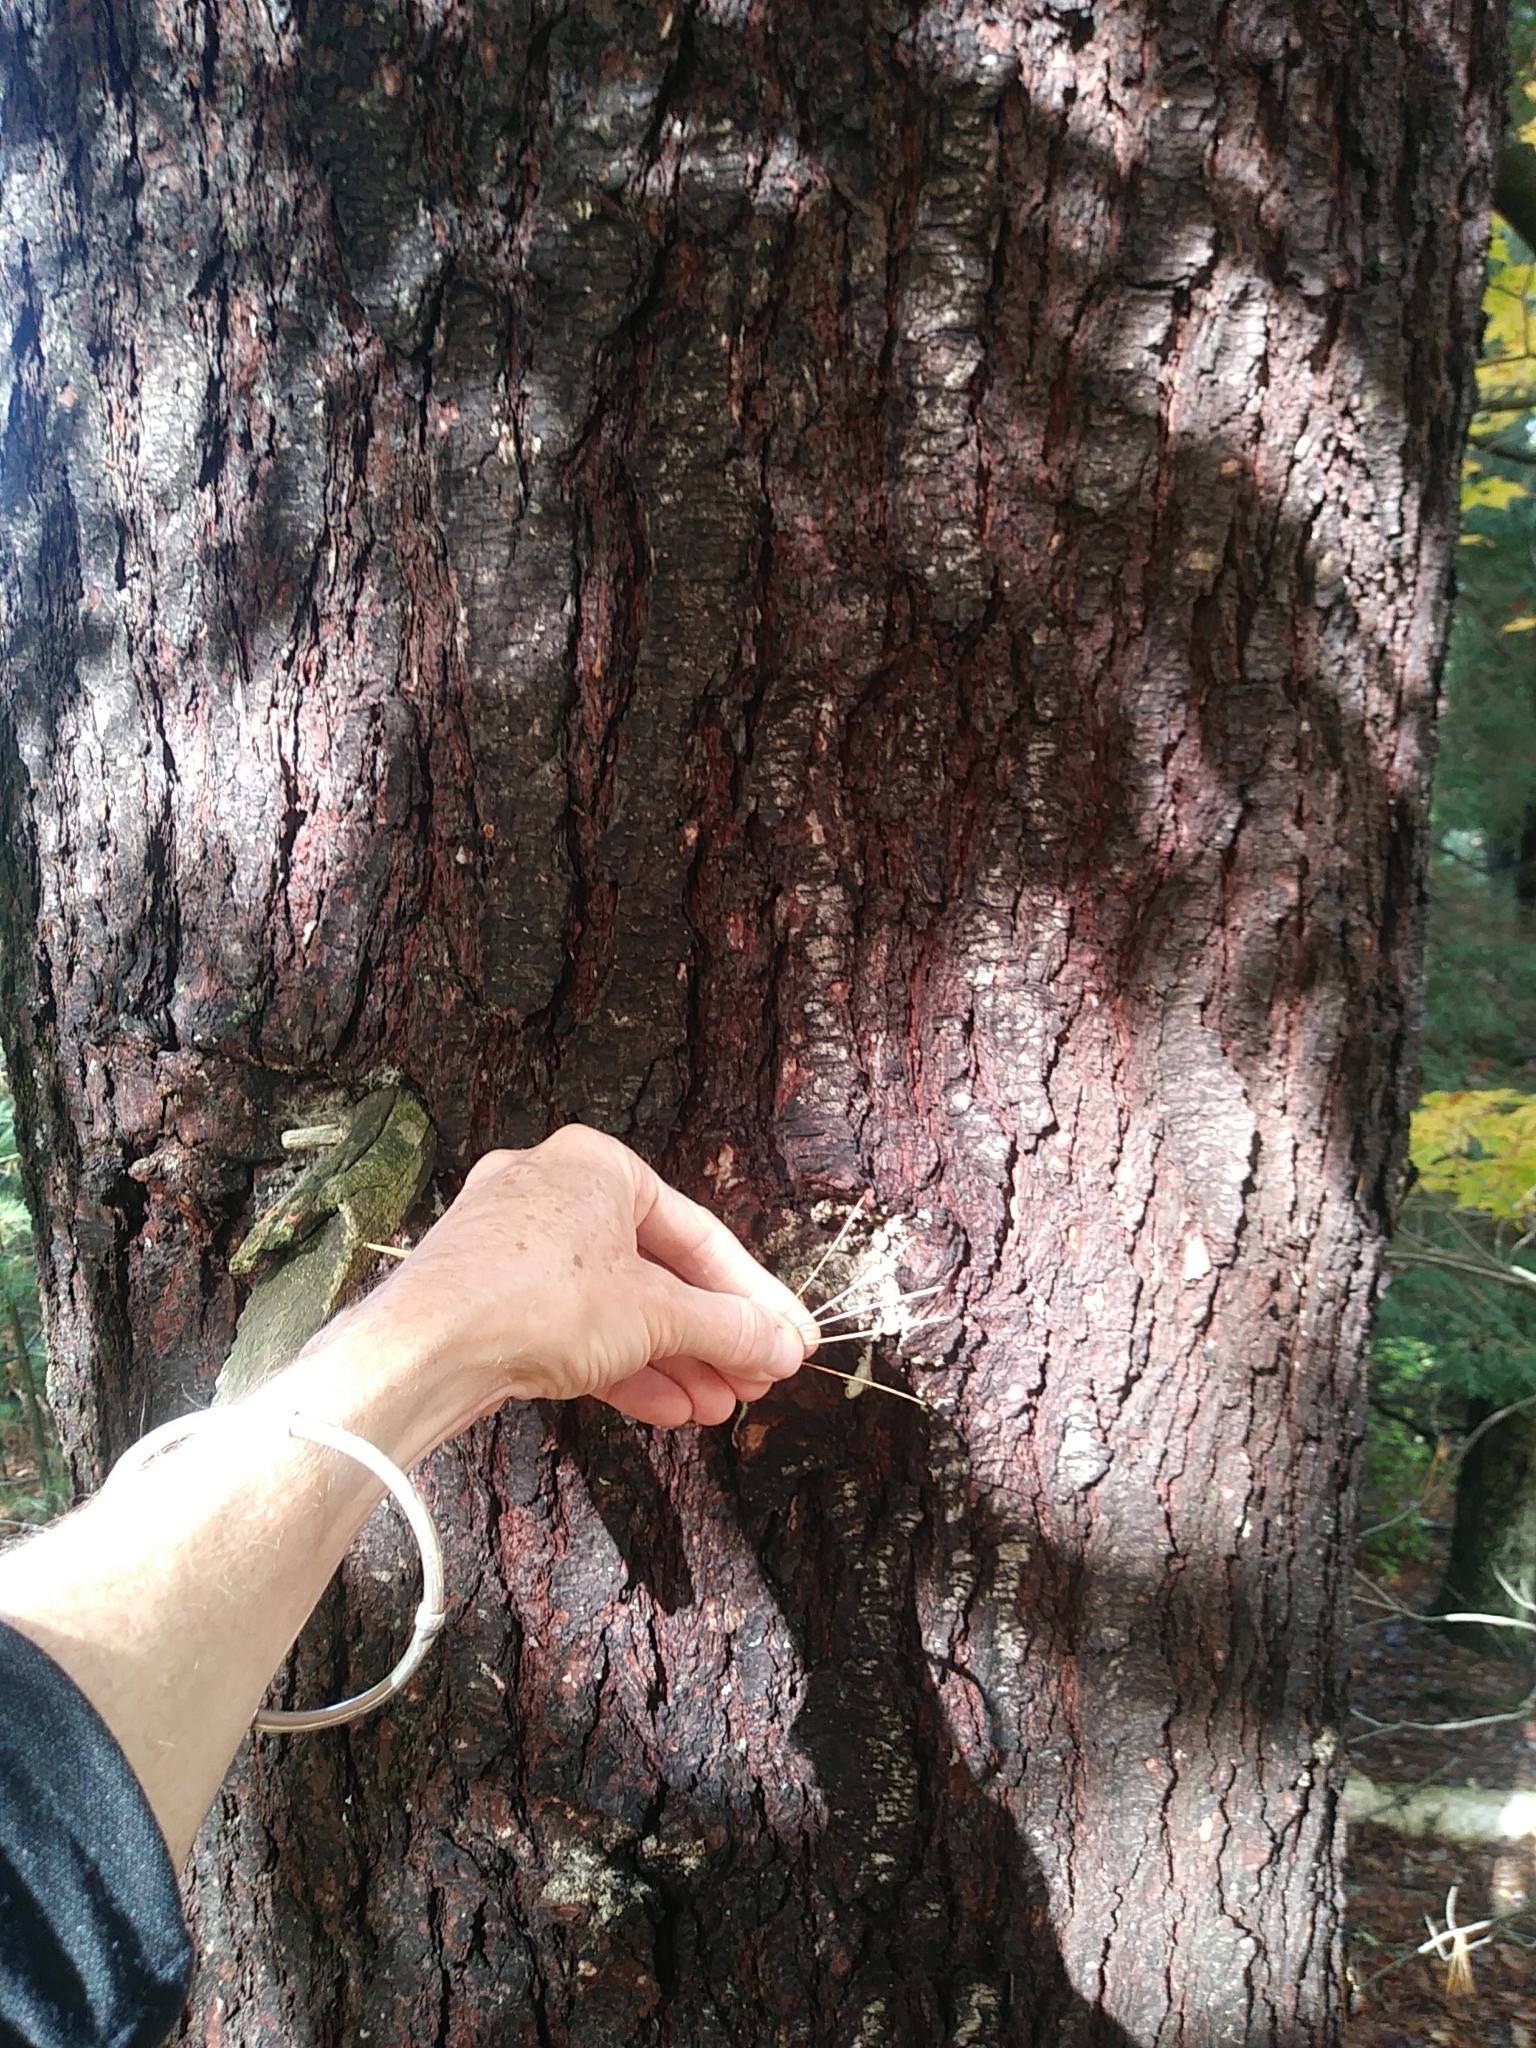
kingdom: Plantae
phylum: Tracheophyta
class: Pinopsida
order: Pinales
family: Pinaceae
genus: Pinus
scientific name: Pinus strobus
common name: Weymouth pine
